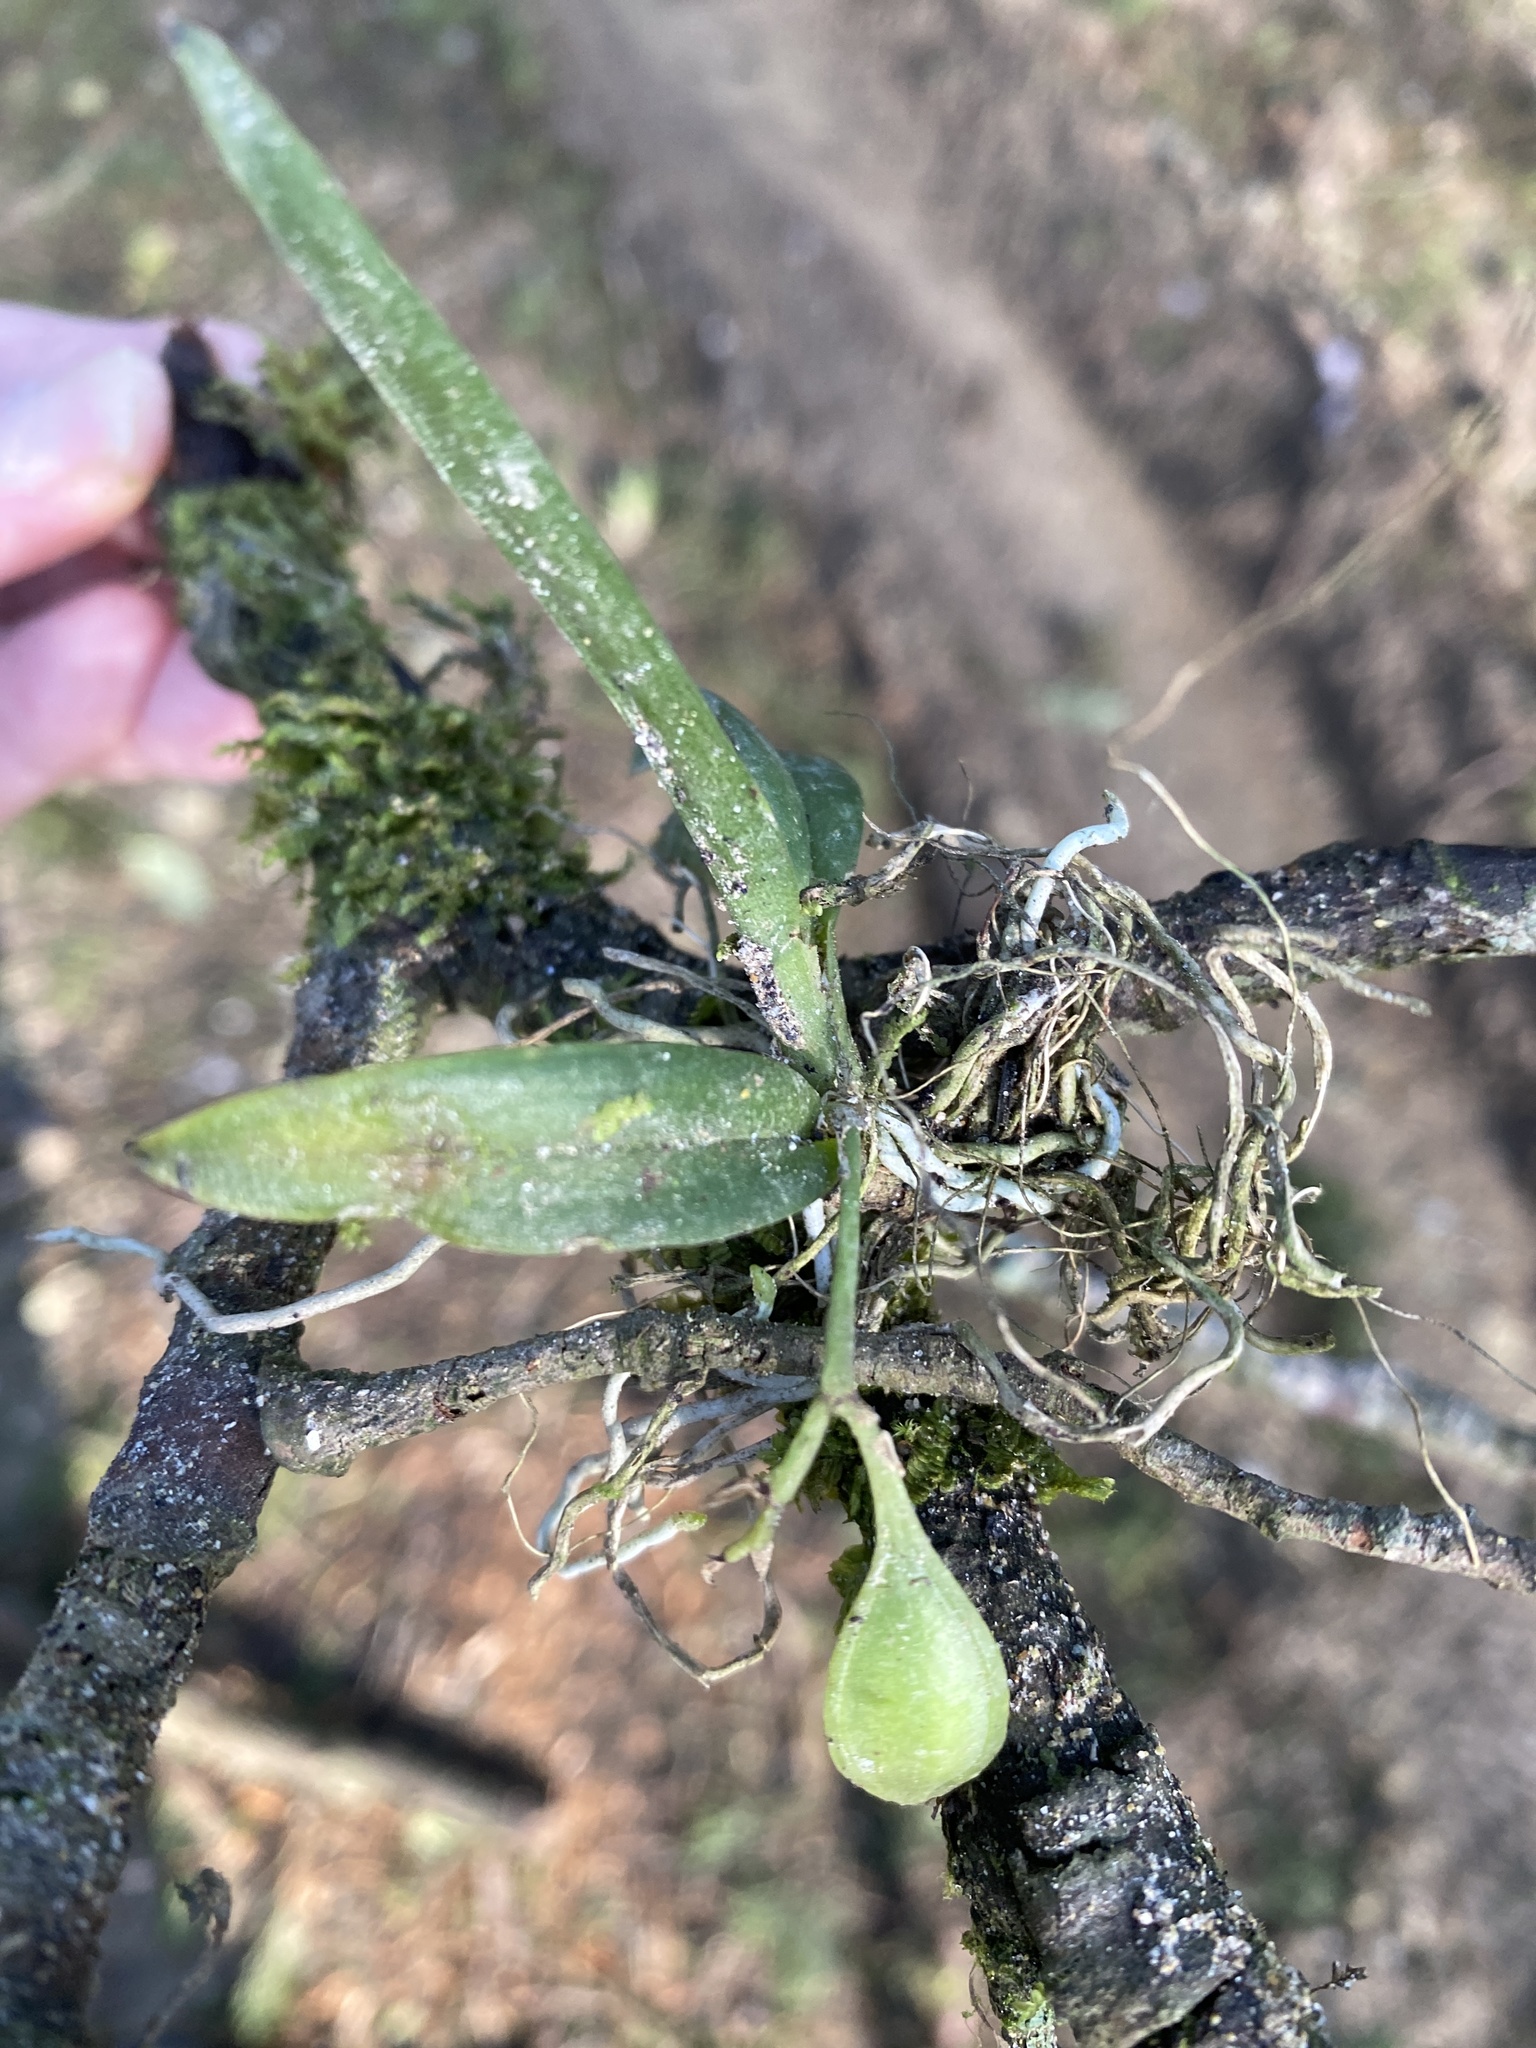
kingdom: Plantae
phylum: Tracheophyta
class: Liliopsida
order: Asparagales
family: Orchidaceae
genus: Leochilus
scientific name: Leochilus johnstonii
